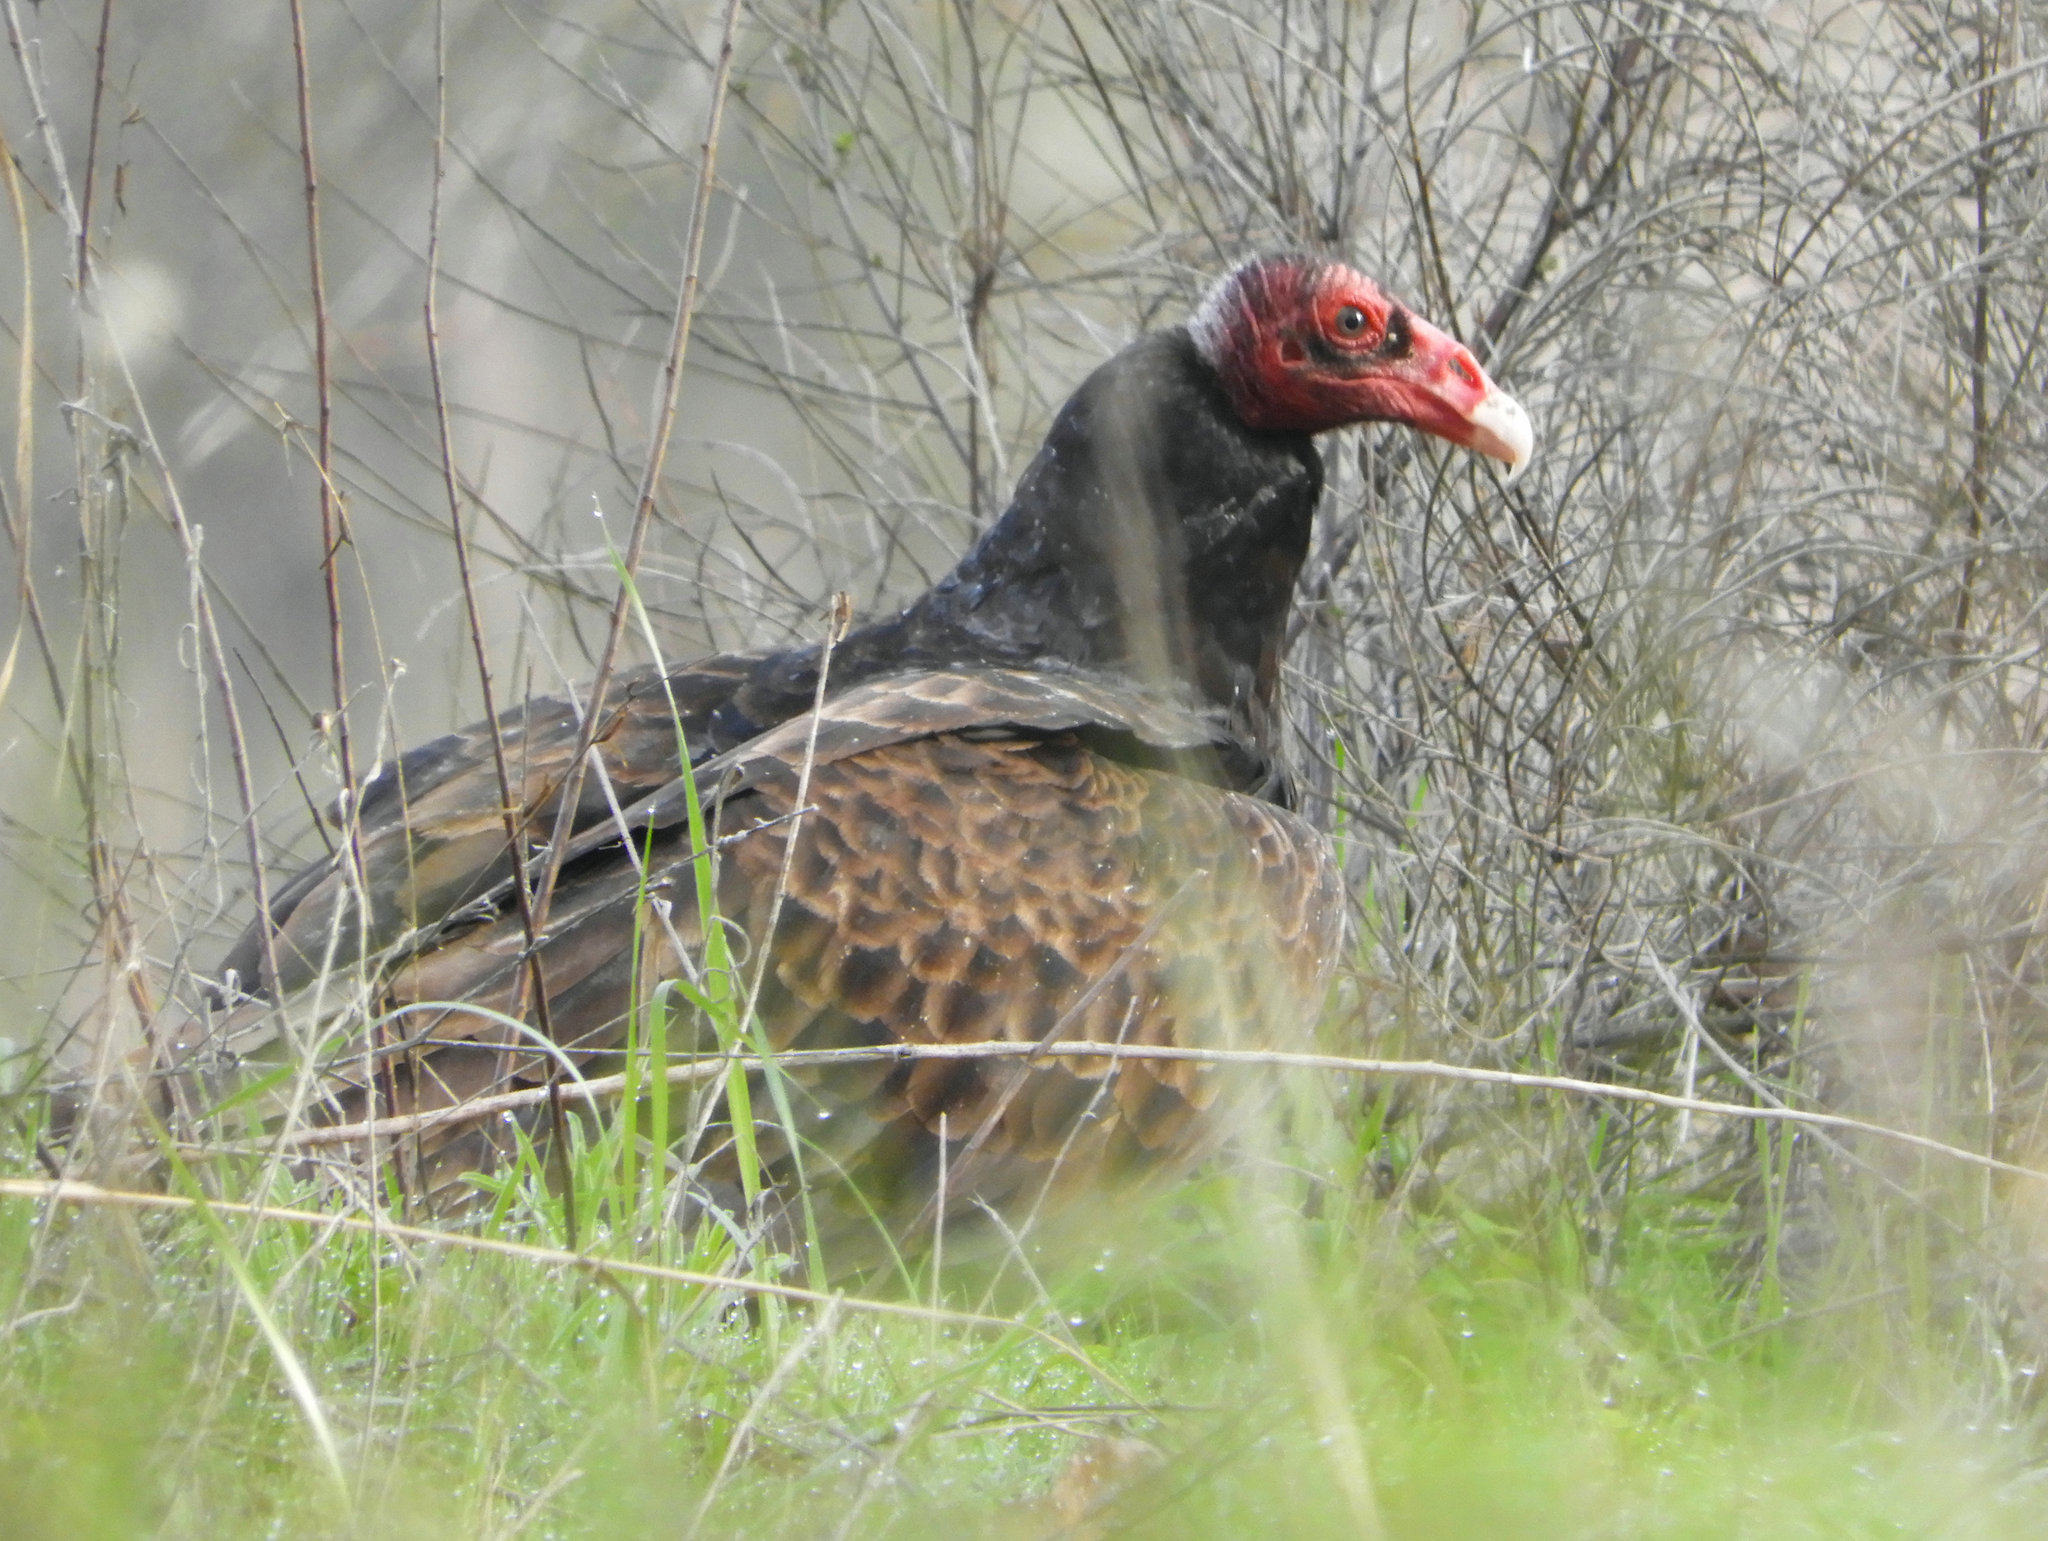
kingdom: Animalia
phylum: Chordata
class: Aves
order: Accipitriformes
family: Cathartidae
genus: Cathartes
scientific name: Cathartes aura
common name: Turkey vulture
